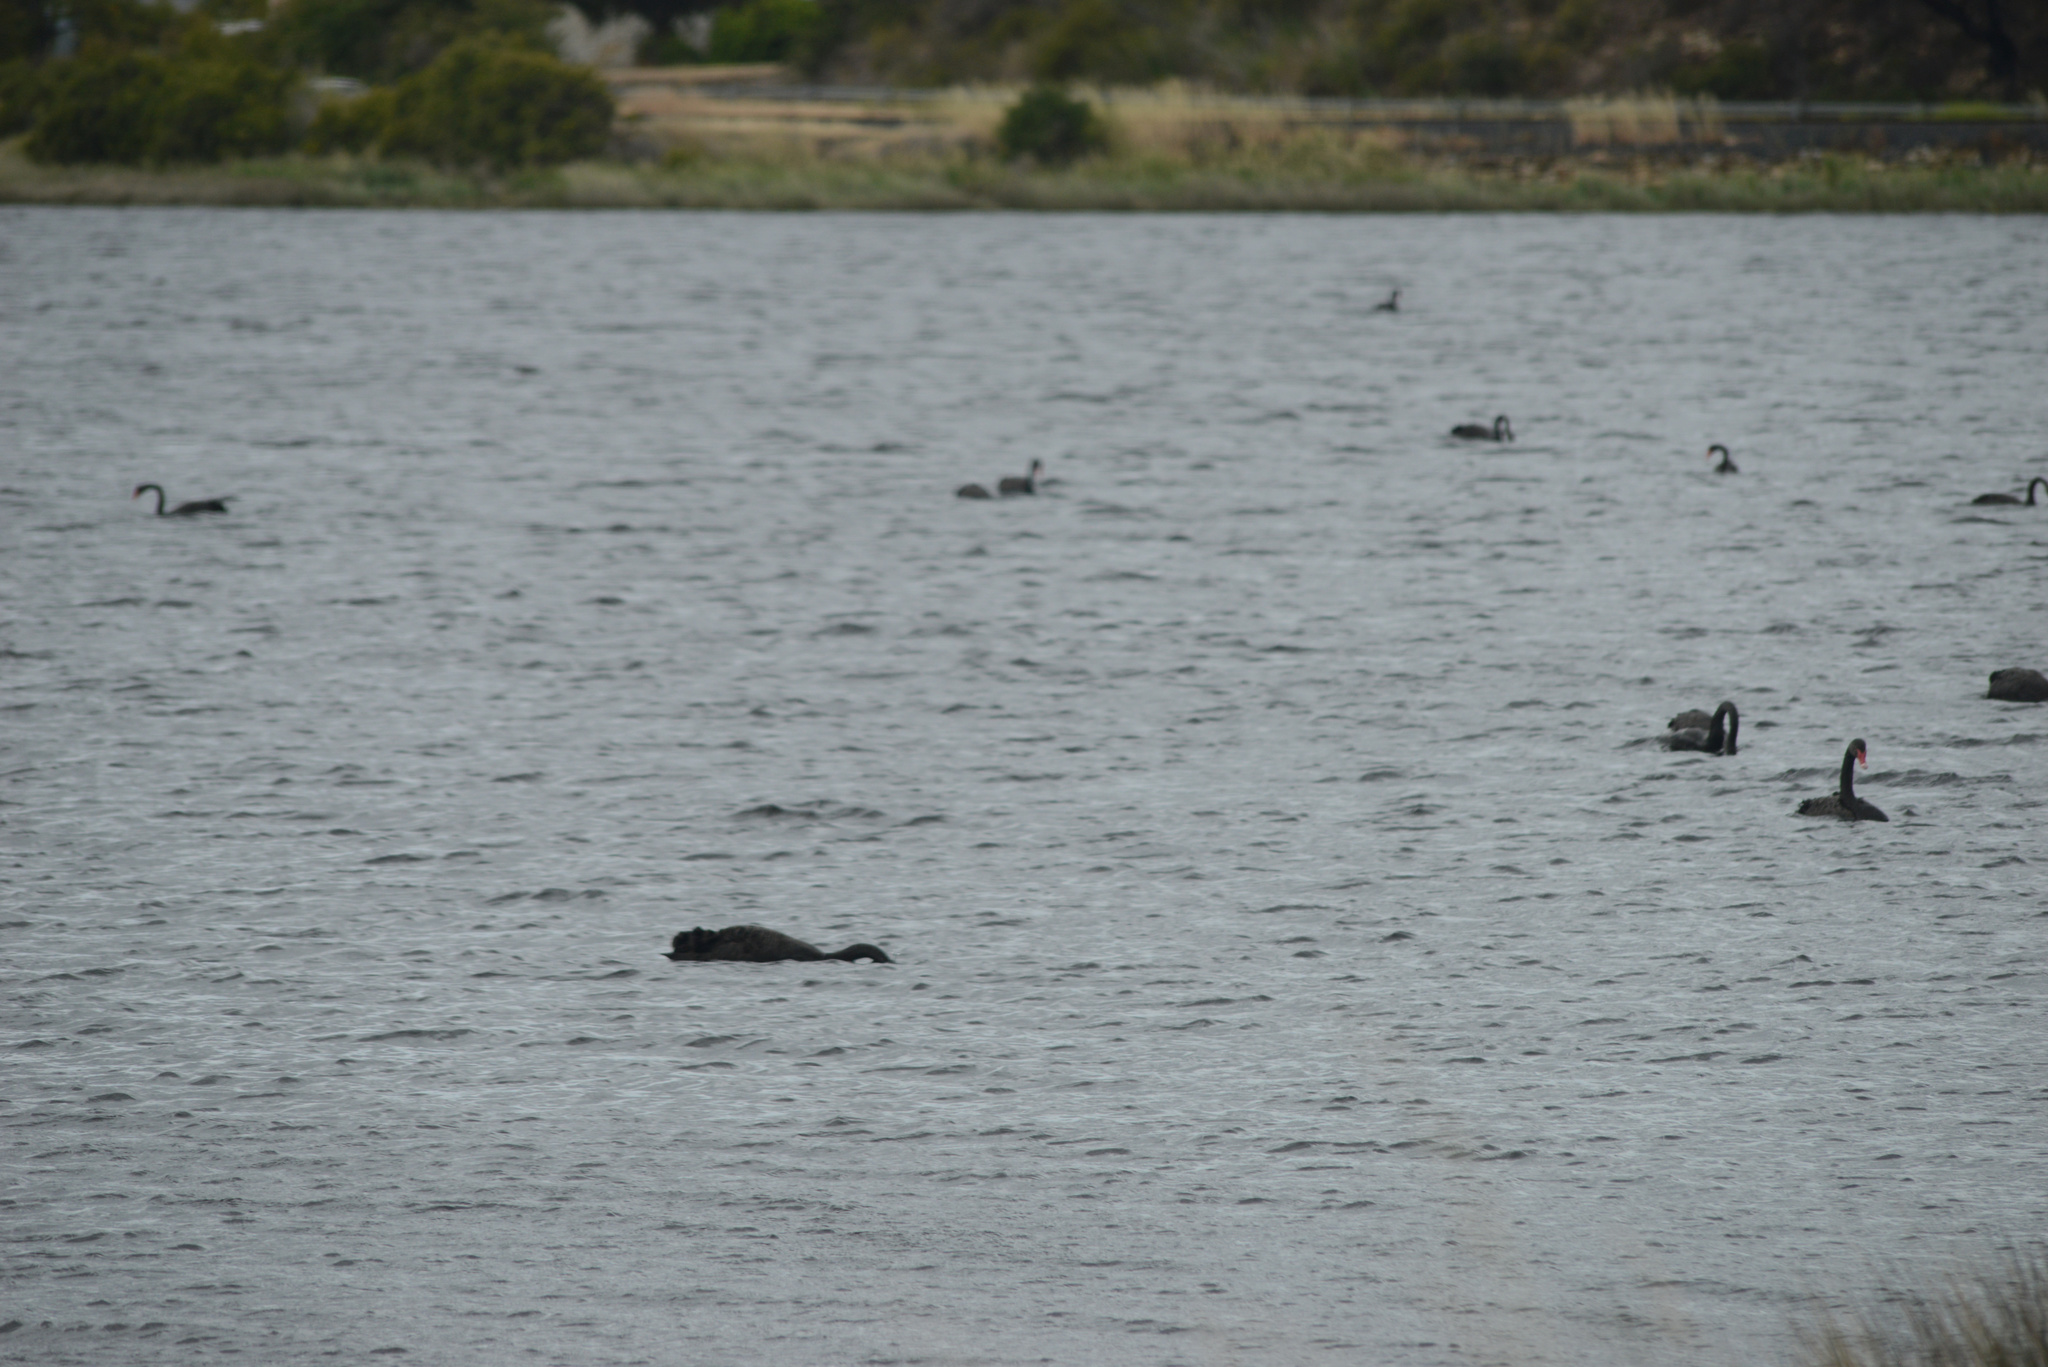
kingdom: Animalia
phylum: Chordata
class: Aves
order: Anseriformes
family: Anatidae
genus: Cygnus
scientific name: Cygnus atratus
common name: Black swan
